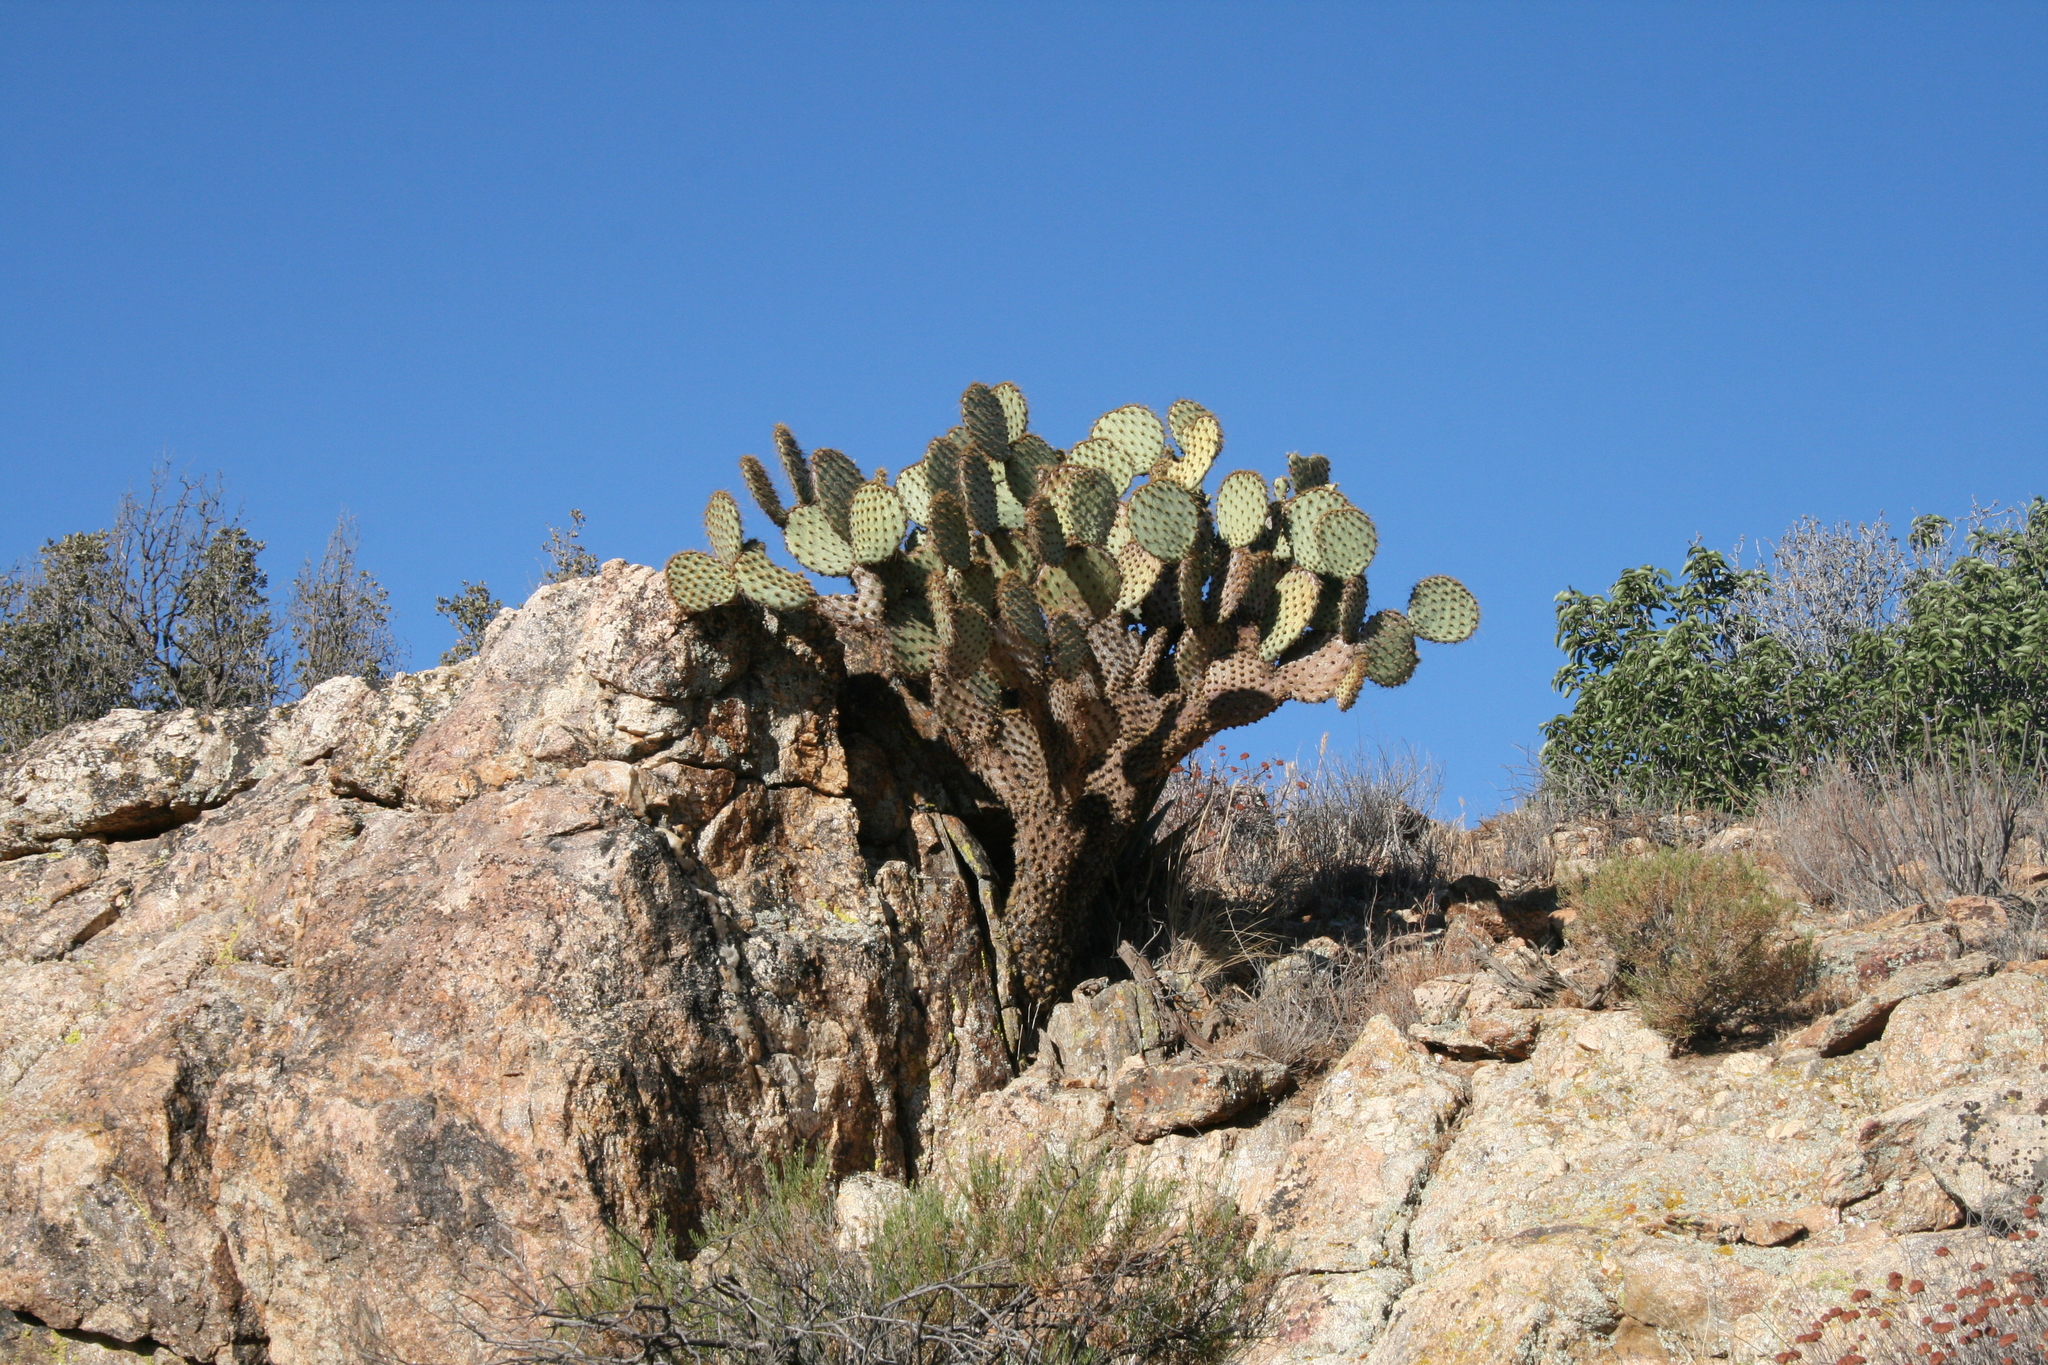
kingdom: Plantae
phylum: Tracheophyta
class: Magnoliopsida
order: Caryophyllales
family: Cactaceae
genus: Opuntia
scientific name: Opuntia chlorotica
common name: Dollar-joint prickly-pear
